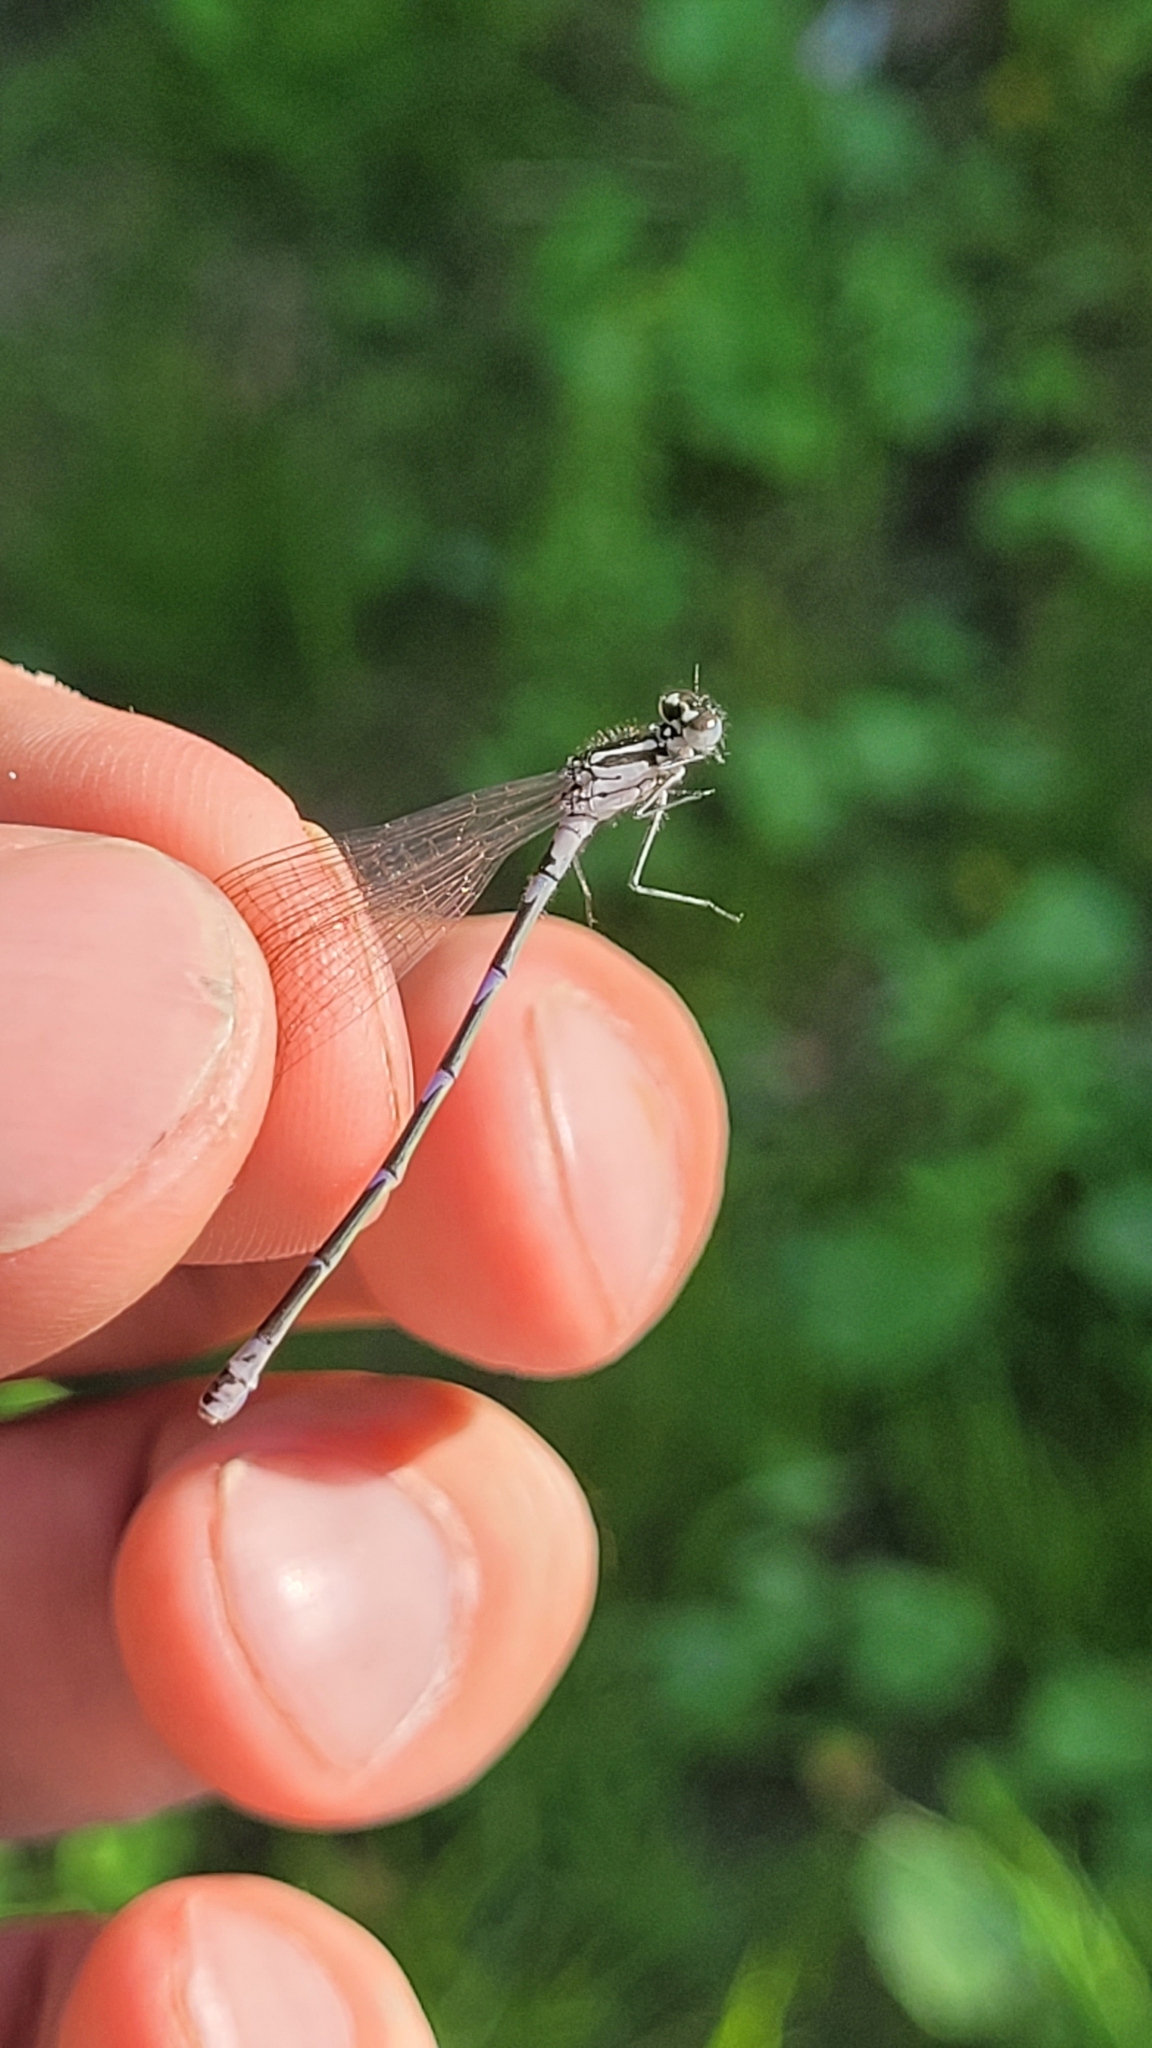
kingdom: Animalia
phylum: Arthropoda
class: Insecta
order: Odonata
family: Coenagrionidae
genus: Coenagrion
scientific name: Coenagrion pulchellum
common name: Variable bluet
